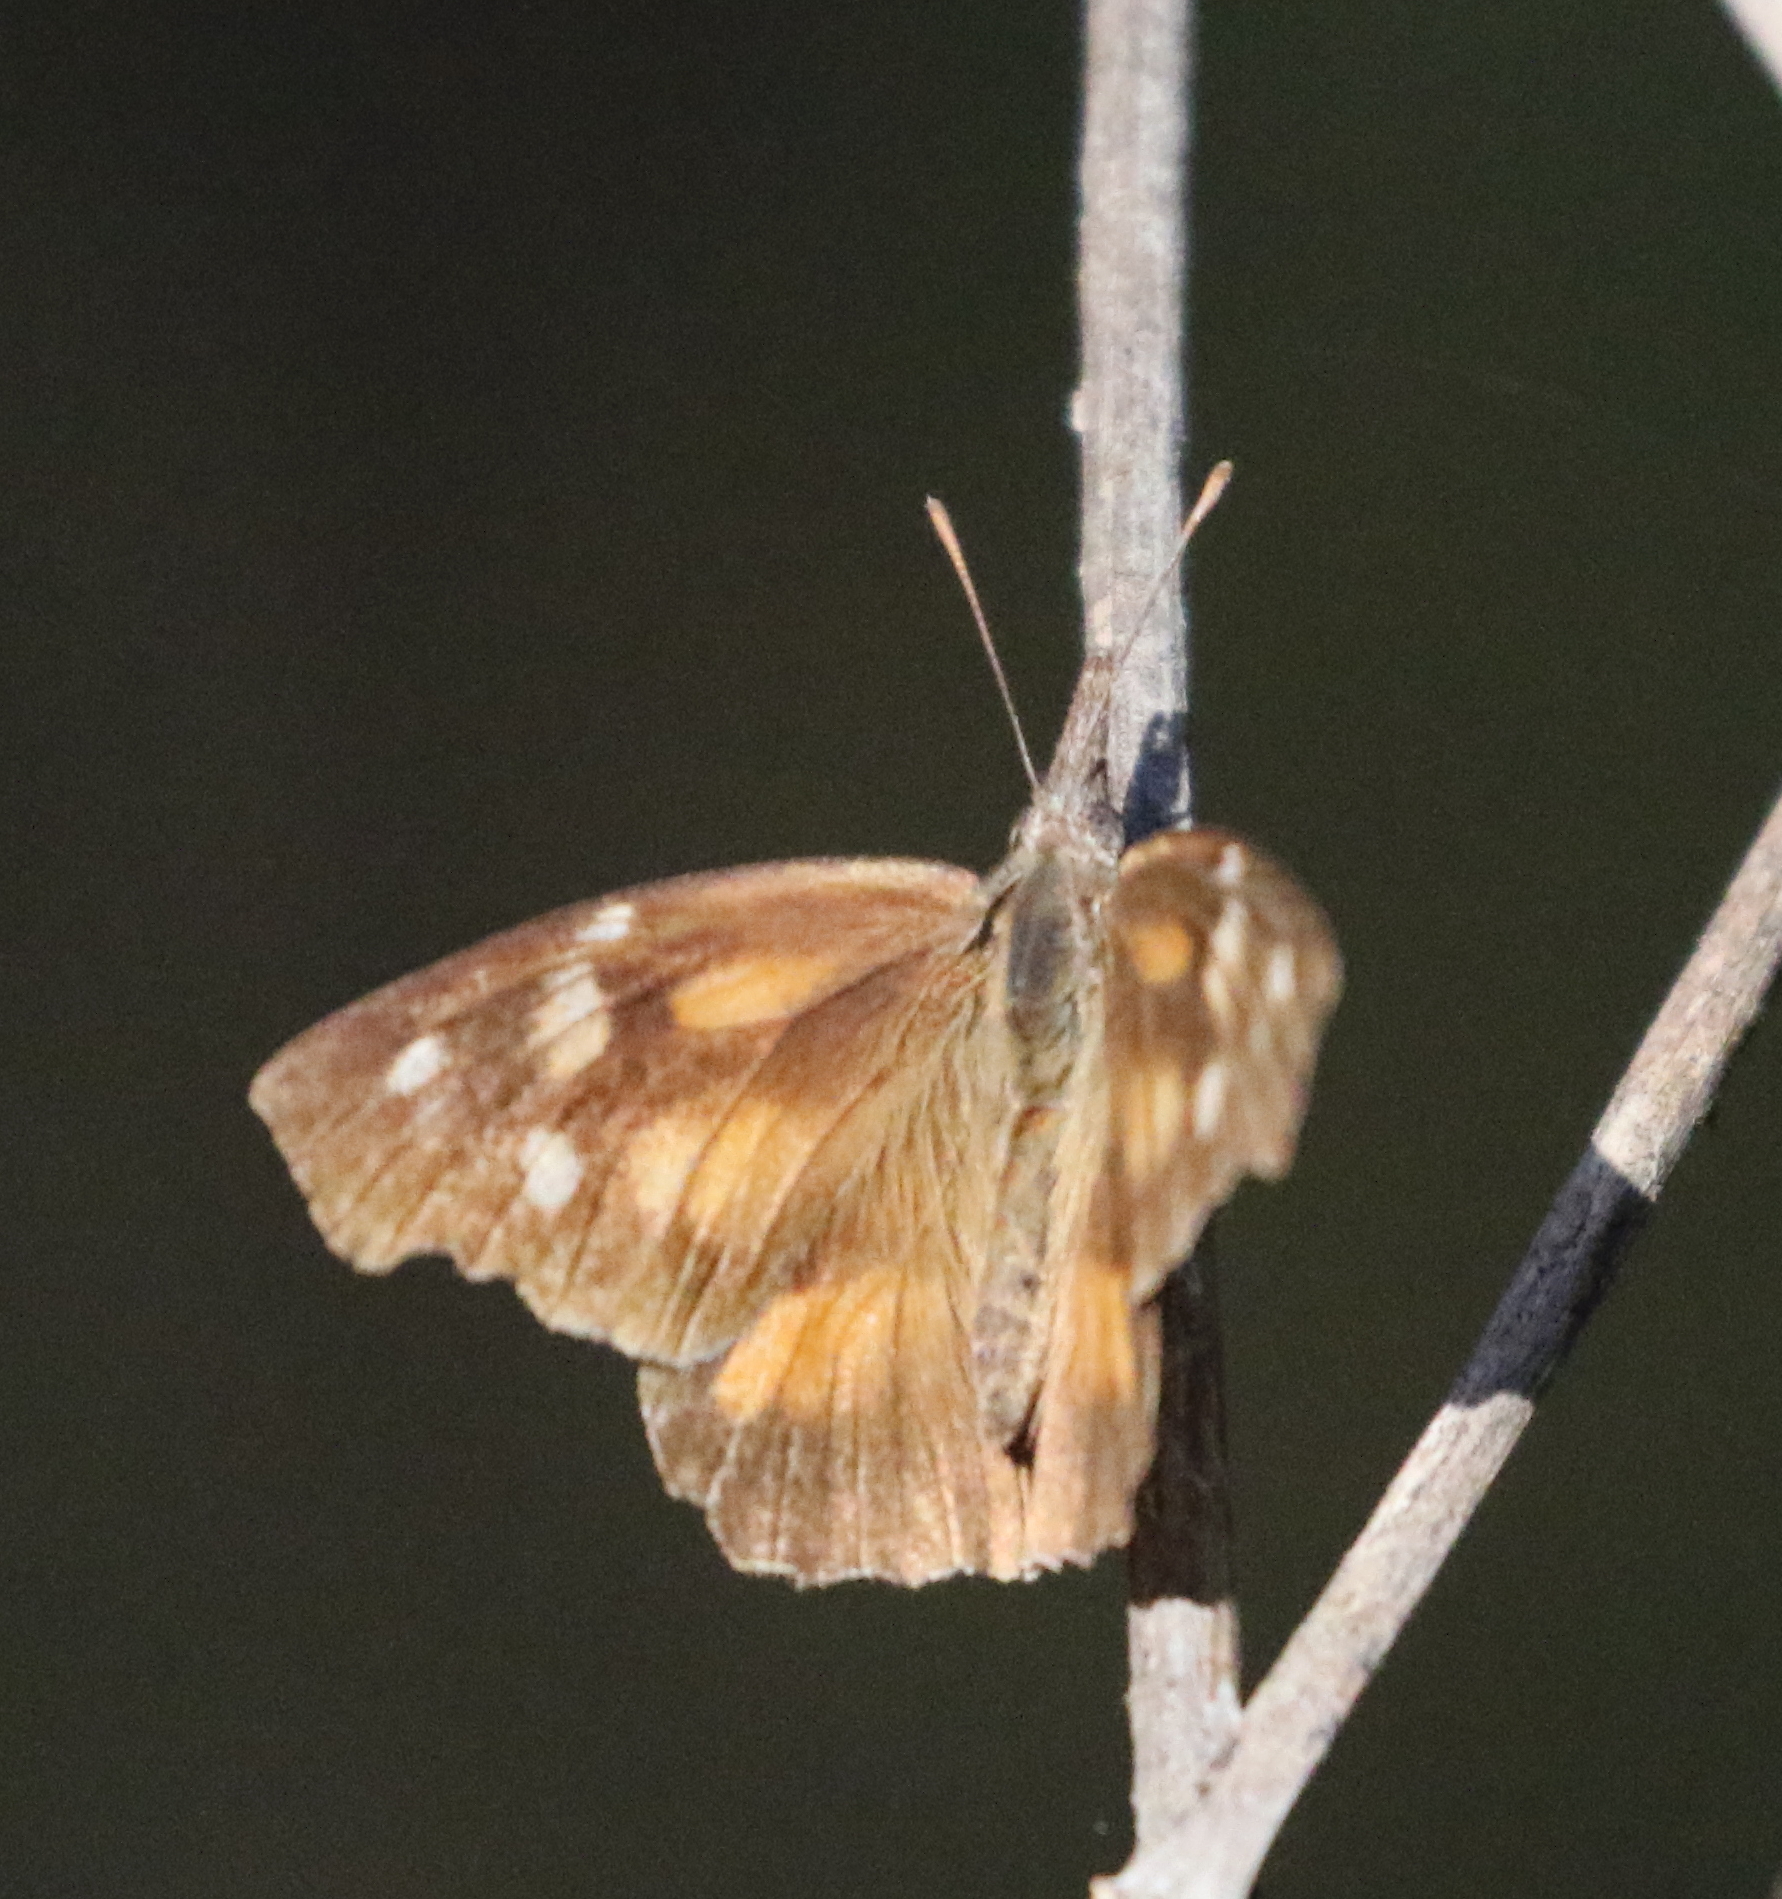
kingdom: Animalia
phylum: Arthropoda
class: Insecta
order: Lepidoptera
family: Nymphalidae
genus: Libytheana
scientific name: Libytheana carinenta
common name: American snout
